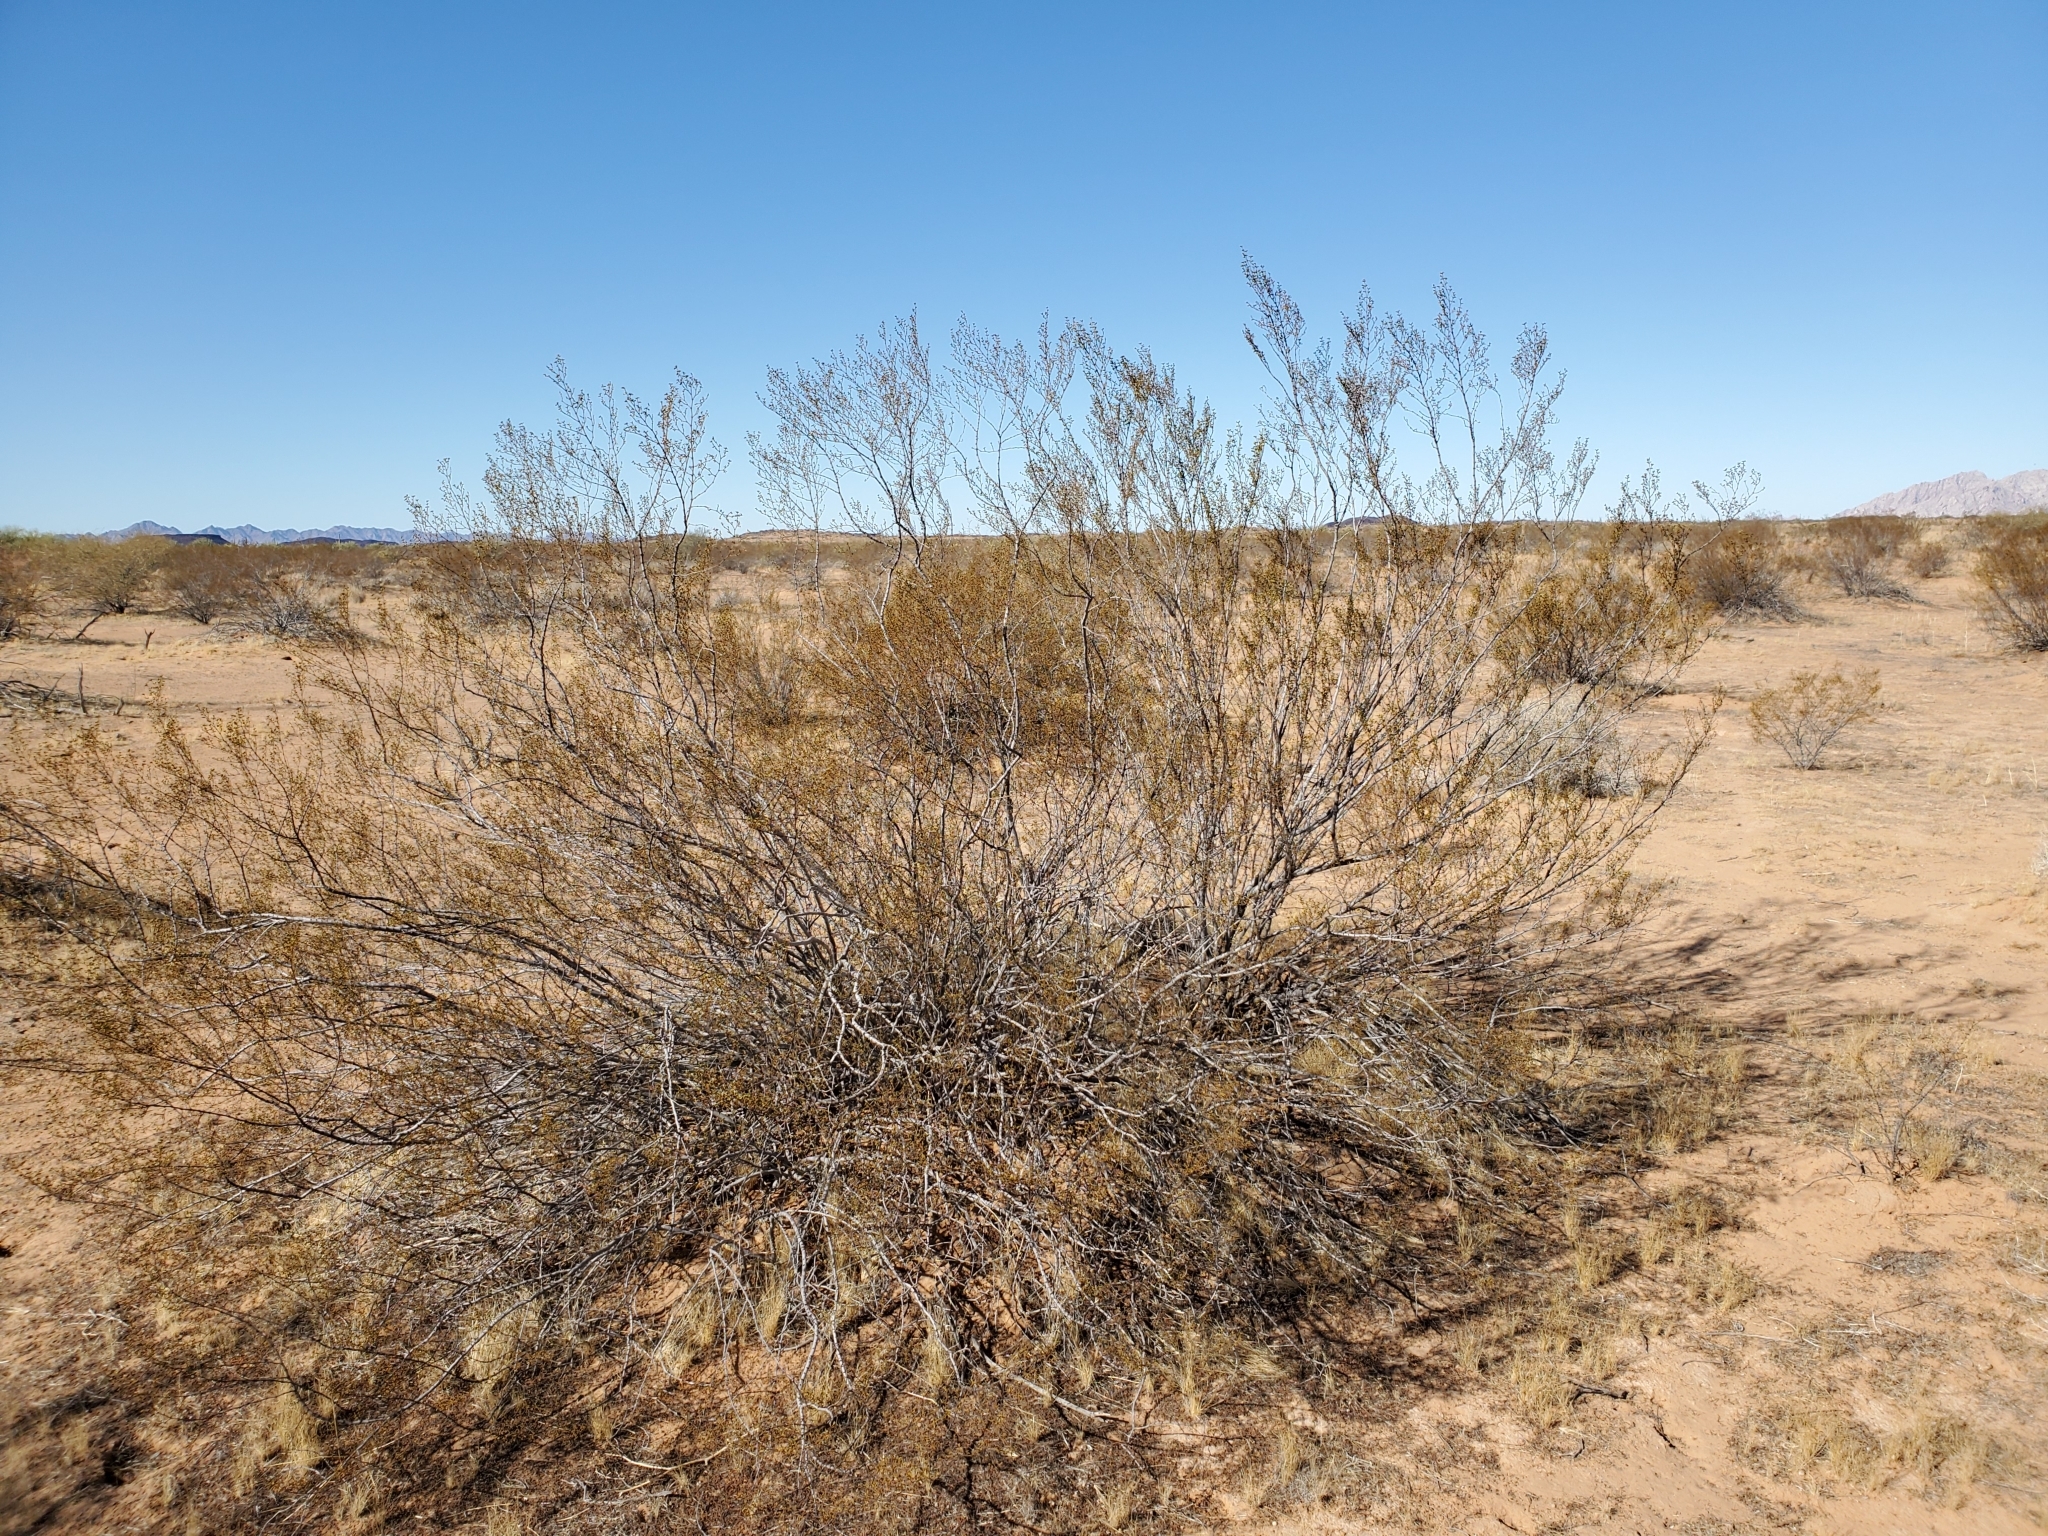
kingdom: Plantae
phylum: Tracheophyta
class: Magnoliopsida
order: Zygophyllales
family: Zygophyllaceae
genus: Larrea
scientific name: Larrea tridentata
